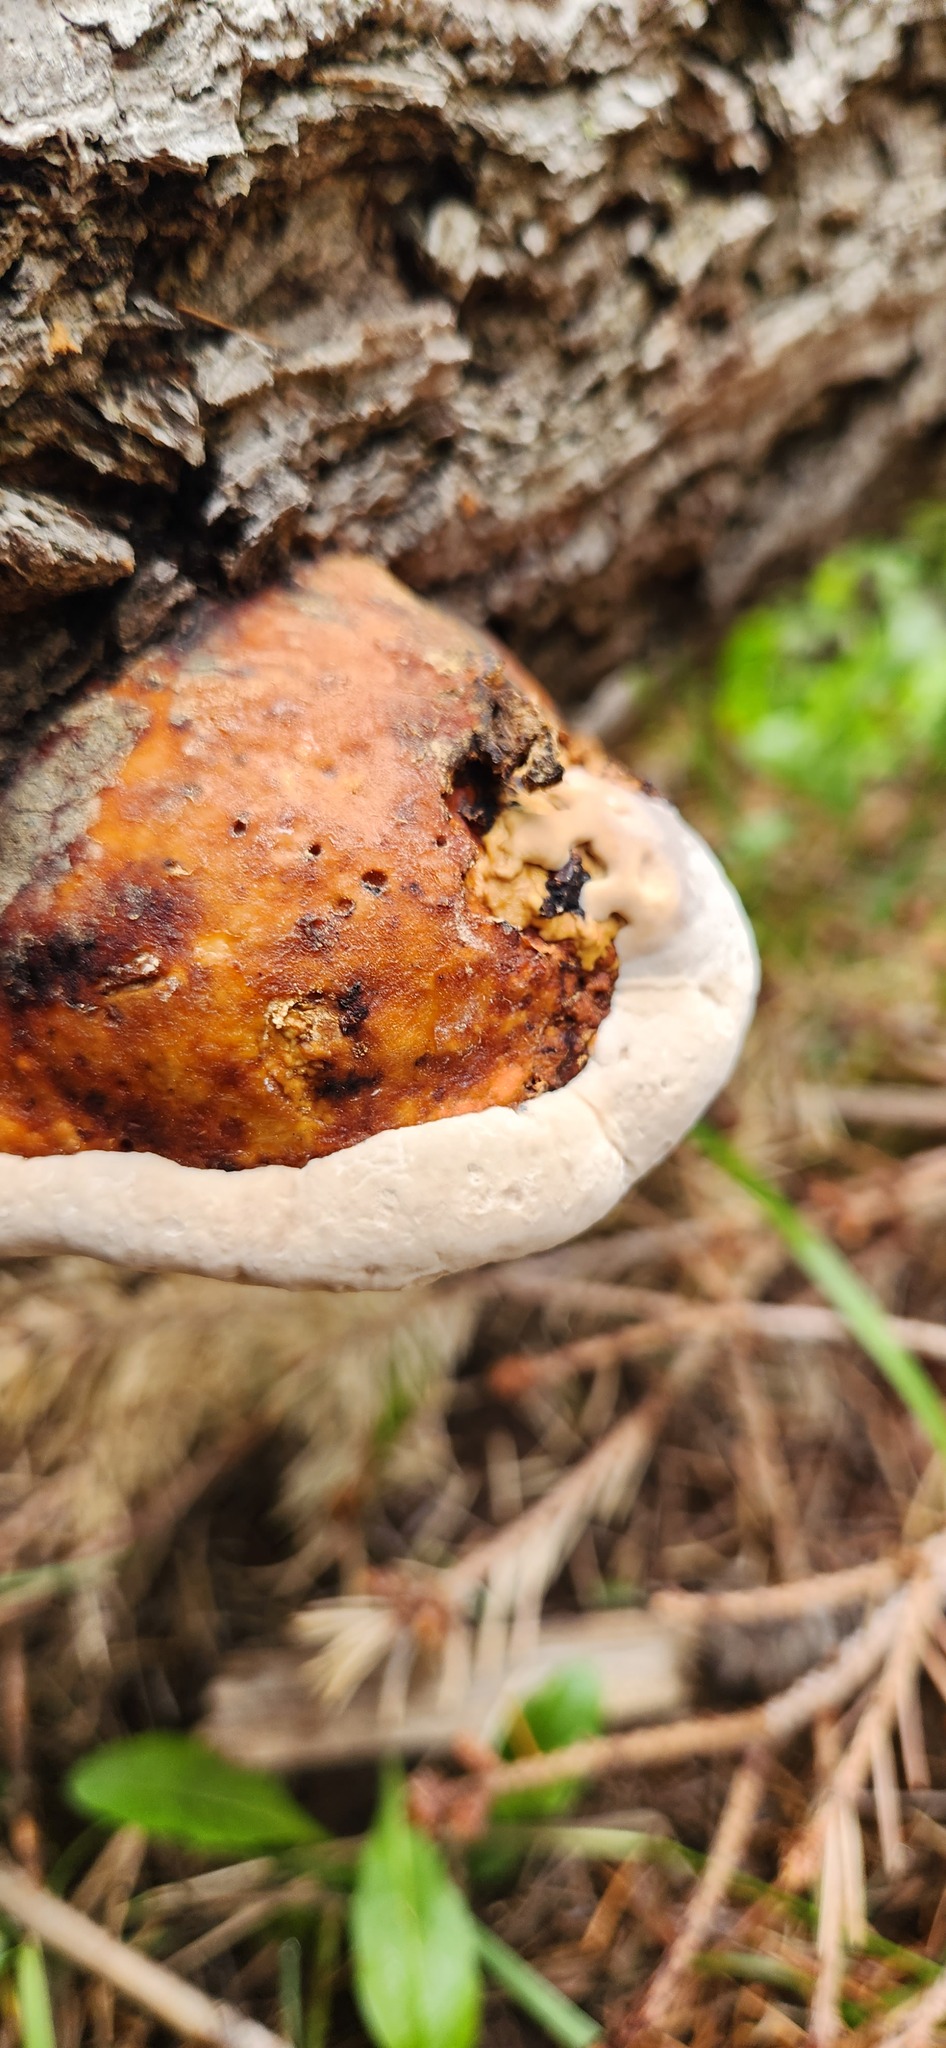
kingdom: Fungi
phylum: Basidiomycota
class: Agaricomycetes
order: Polyporales
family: Fomitopsidaceae
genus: Fomitopsis
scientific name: Fomitopsis schrenkii
